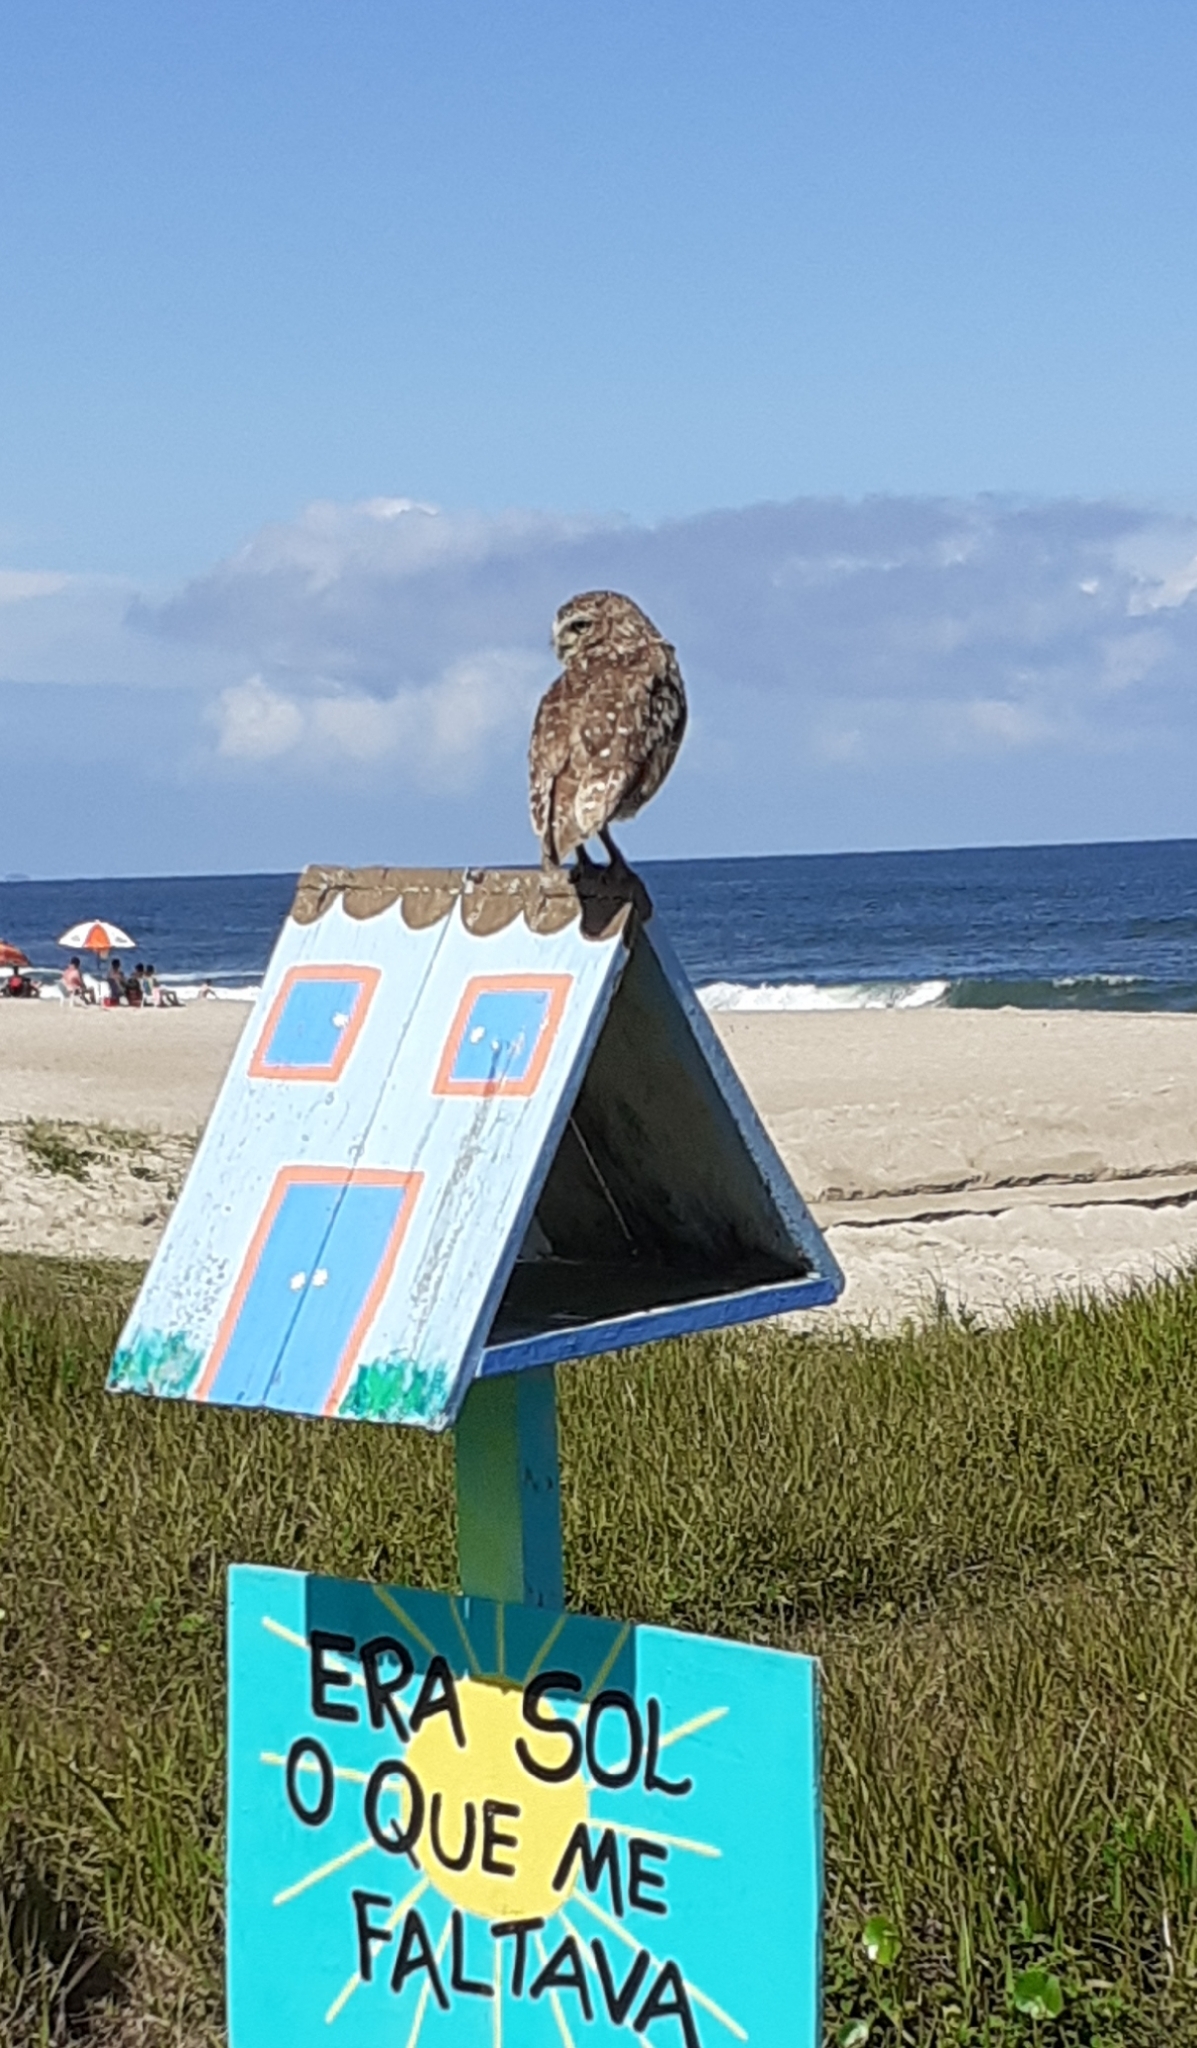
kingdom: Animalia
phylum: Chordata
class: Aves
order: Strigiformes
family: Strigidae
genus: Athene
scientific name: Athene cunicularia
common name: Burrowing owl
